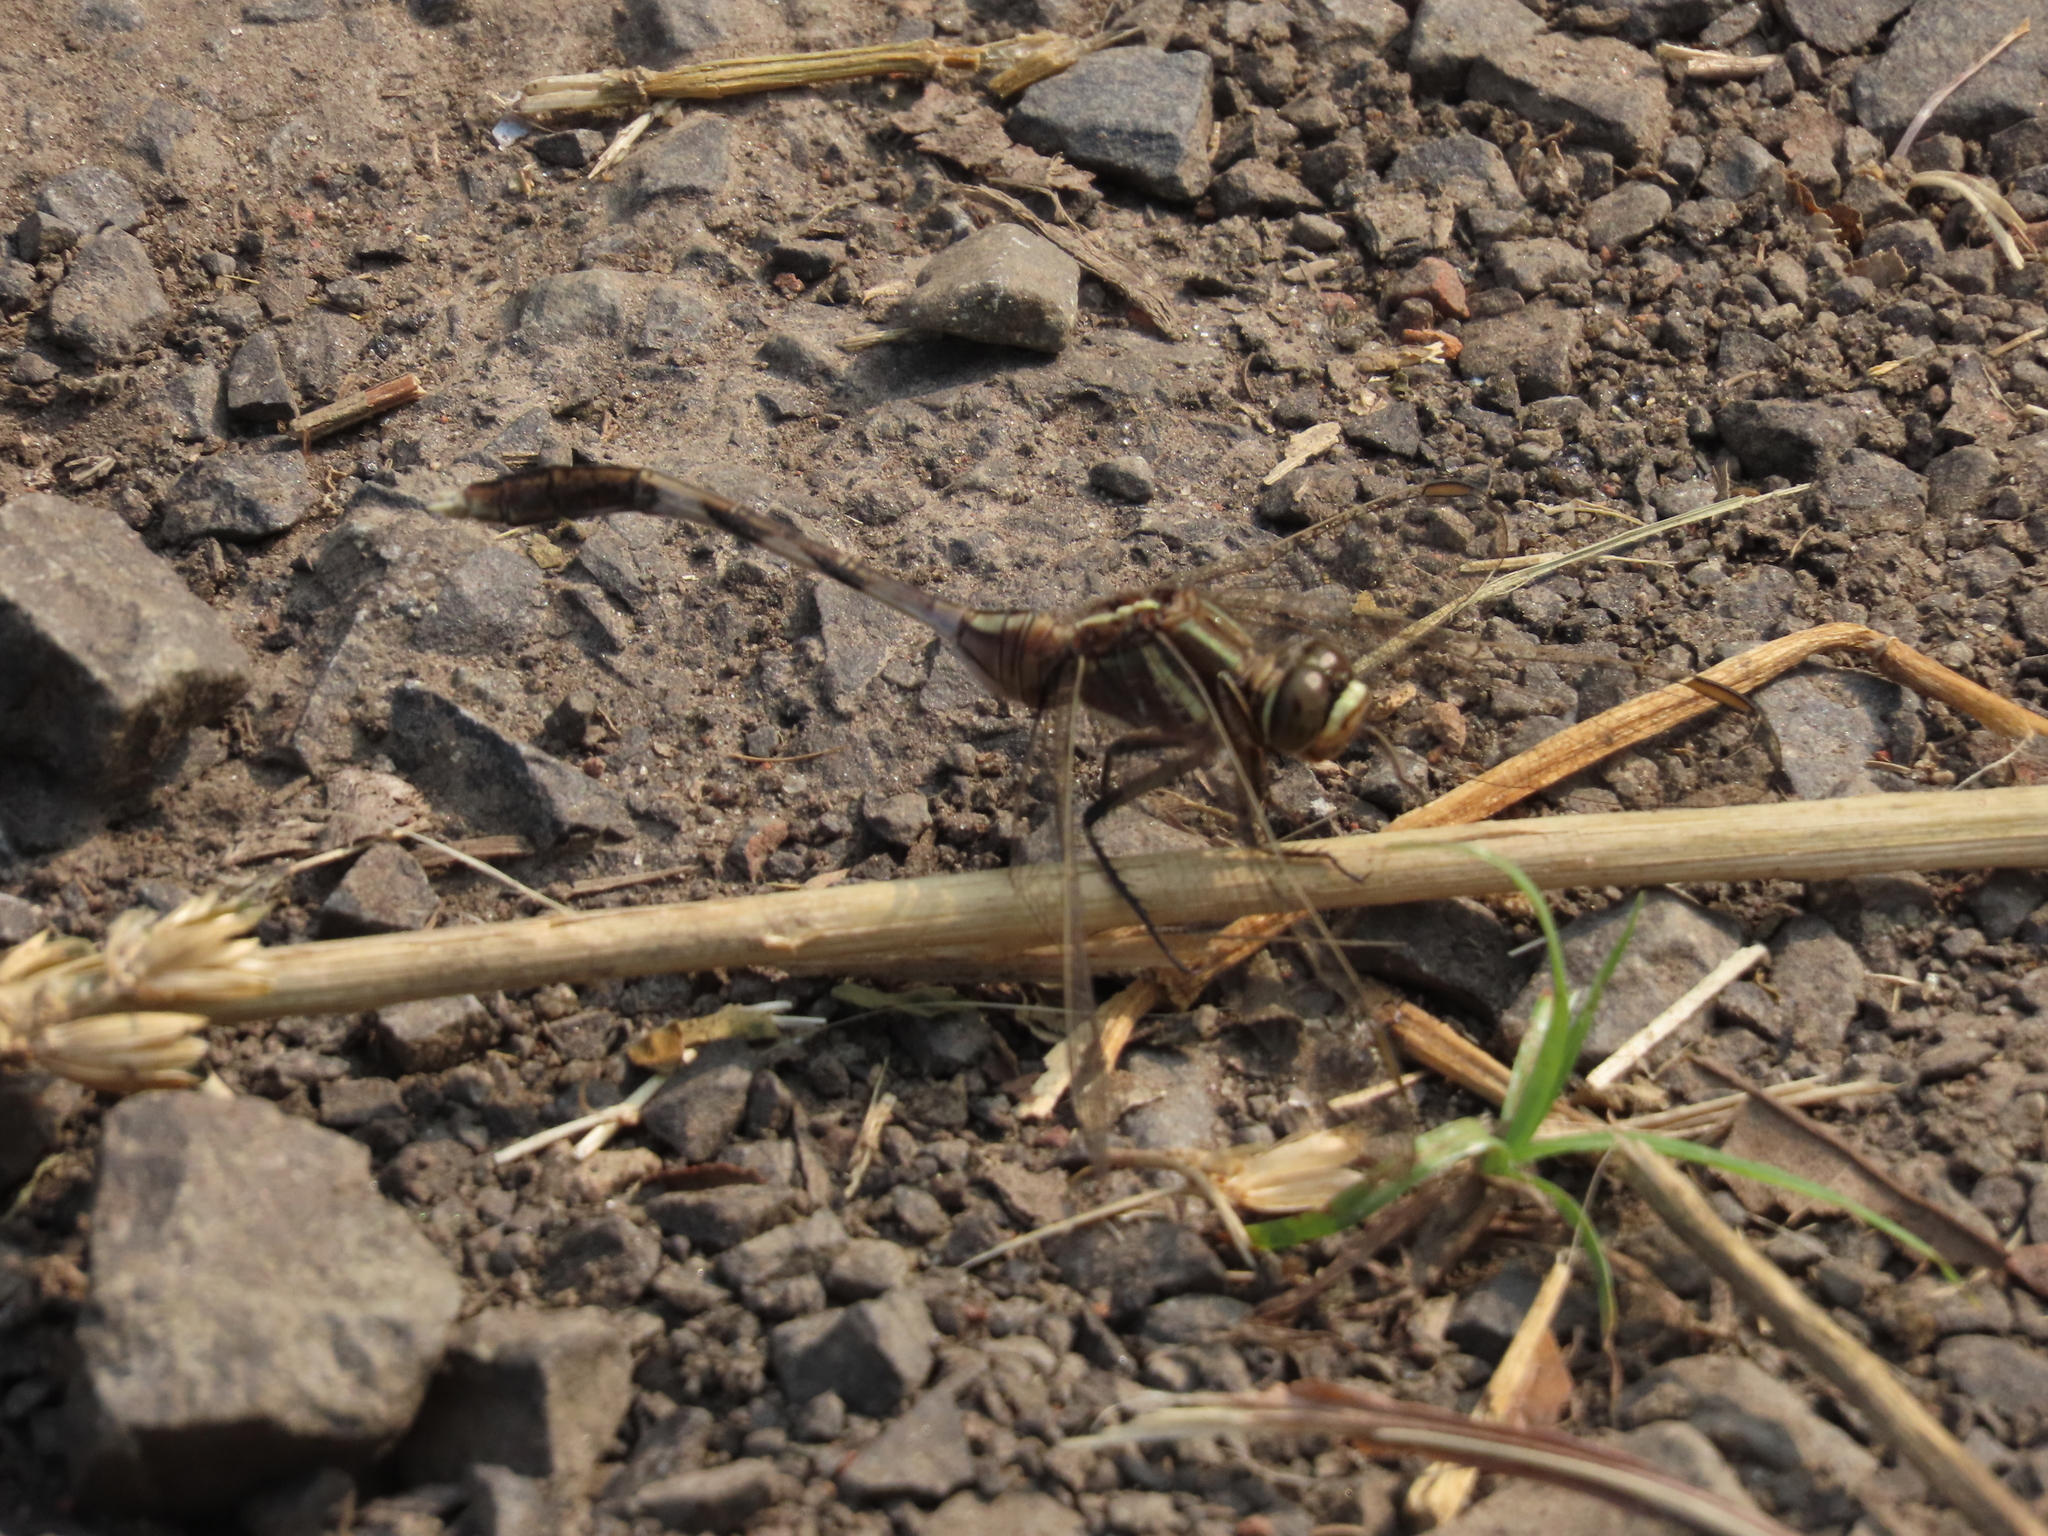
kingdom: Animalia
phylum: Arthropoda
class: Insecta
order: Odonata
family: Libellulidae
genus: Orthetrum
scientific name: Orthetrum sabina
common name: Slender skimmer
